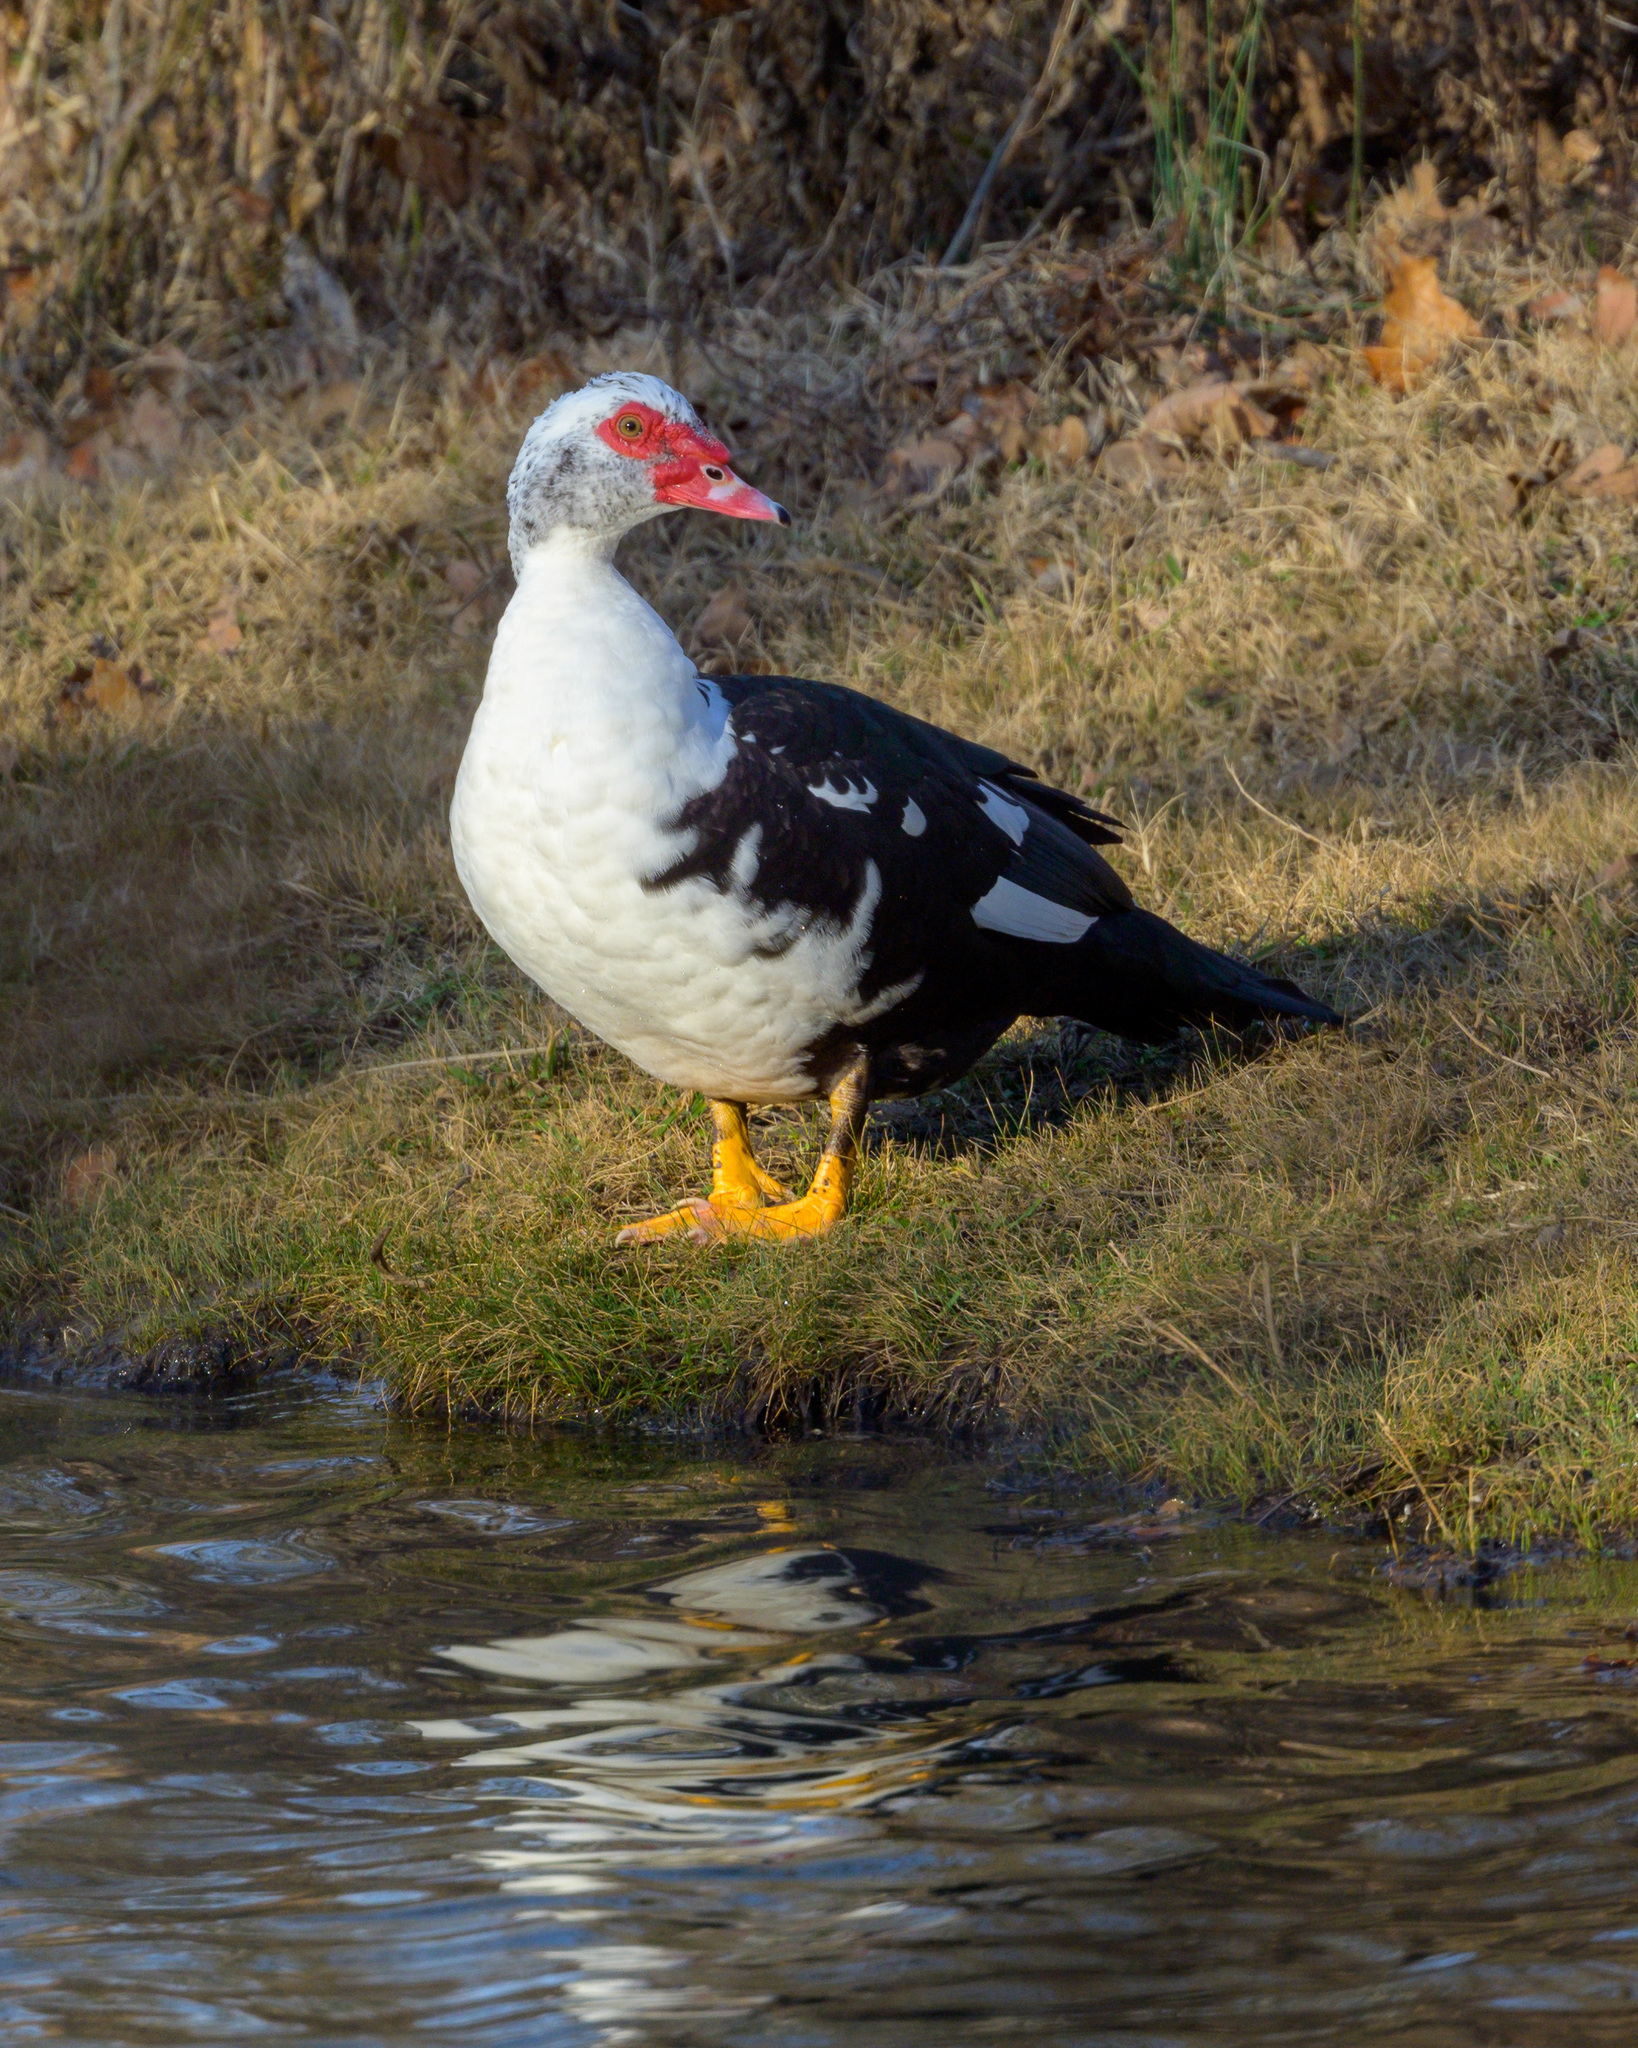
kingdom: Animalia
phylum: Chordata
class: Aves
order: Anseriformes
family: Anatidae
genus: Cairina
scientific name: Cairina moschata
